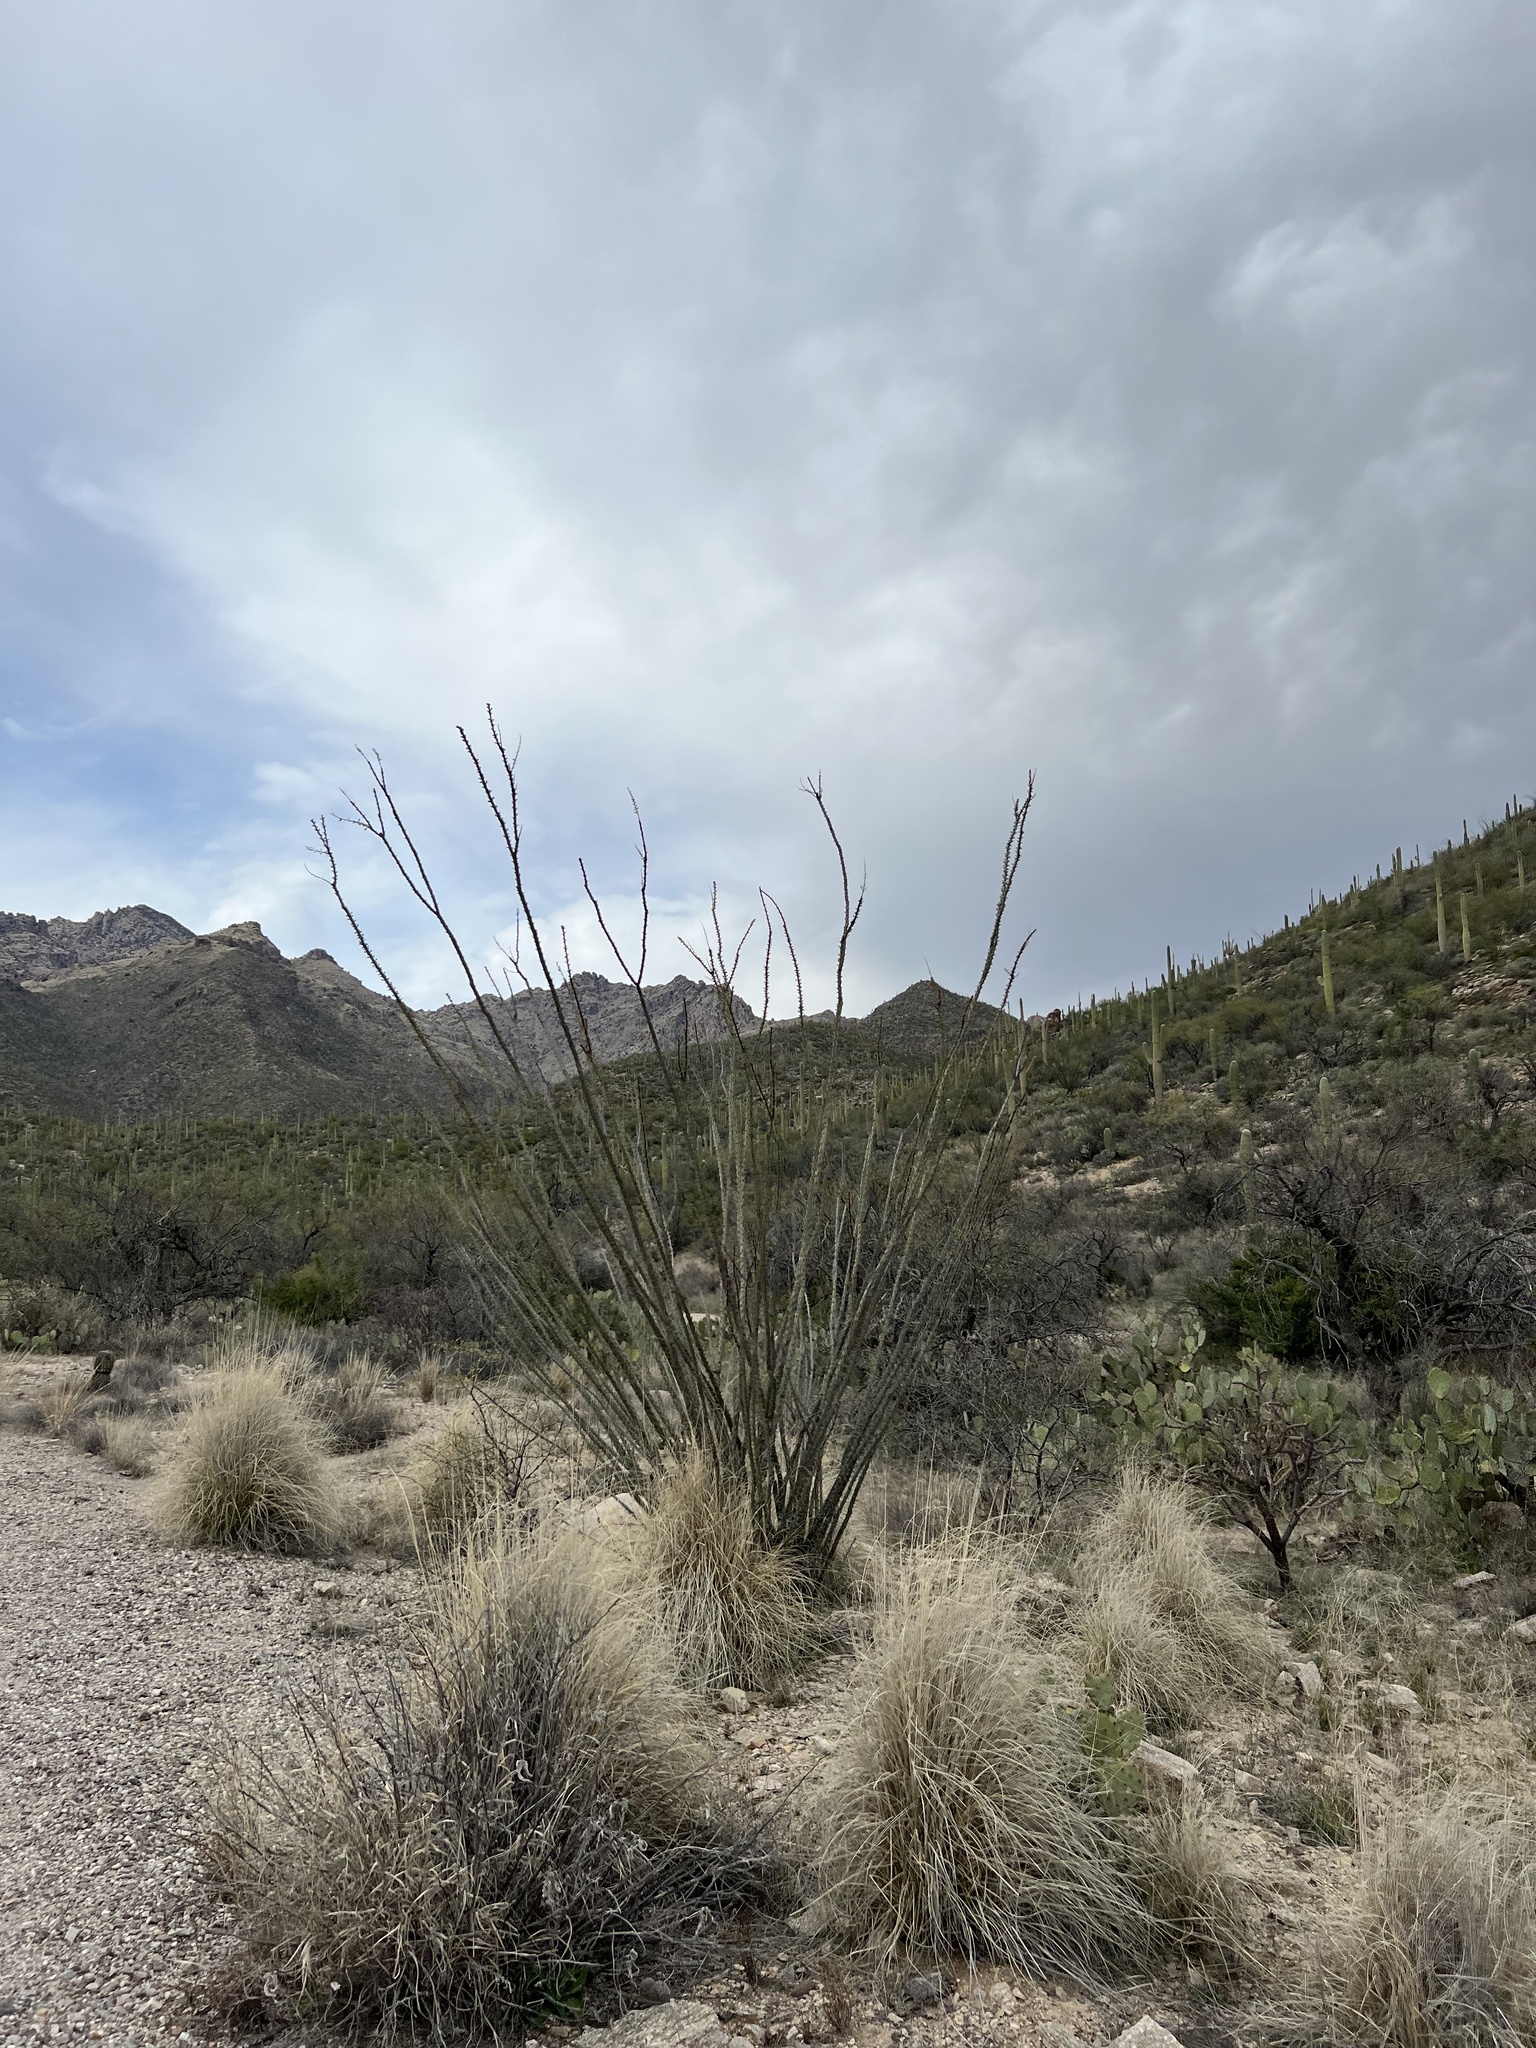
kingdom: Plantae
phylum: Tracheophyta
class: Magnoliopsida
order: Ericales
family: Fouquieriaceae
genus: Fouquieria
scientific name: Fouquieria splendens
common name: Vine-cactus
